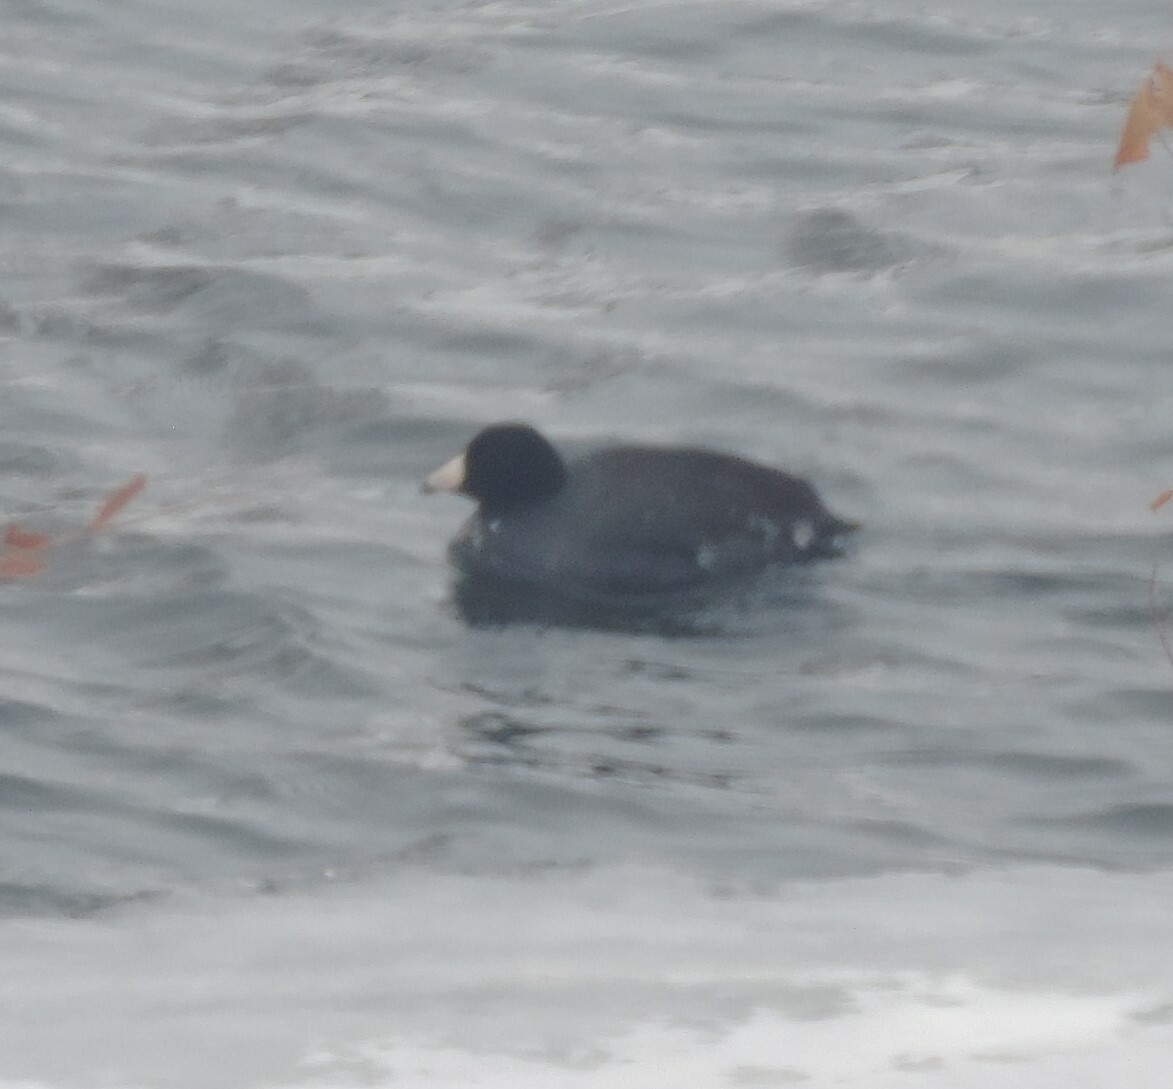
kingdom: Animalia
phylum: Chordata
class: Aves
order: Gruiformes
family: Rallidae
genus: Fulica
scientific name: Fulica americana
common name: American coot
